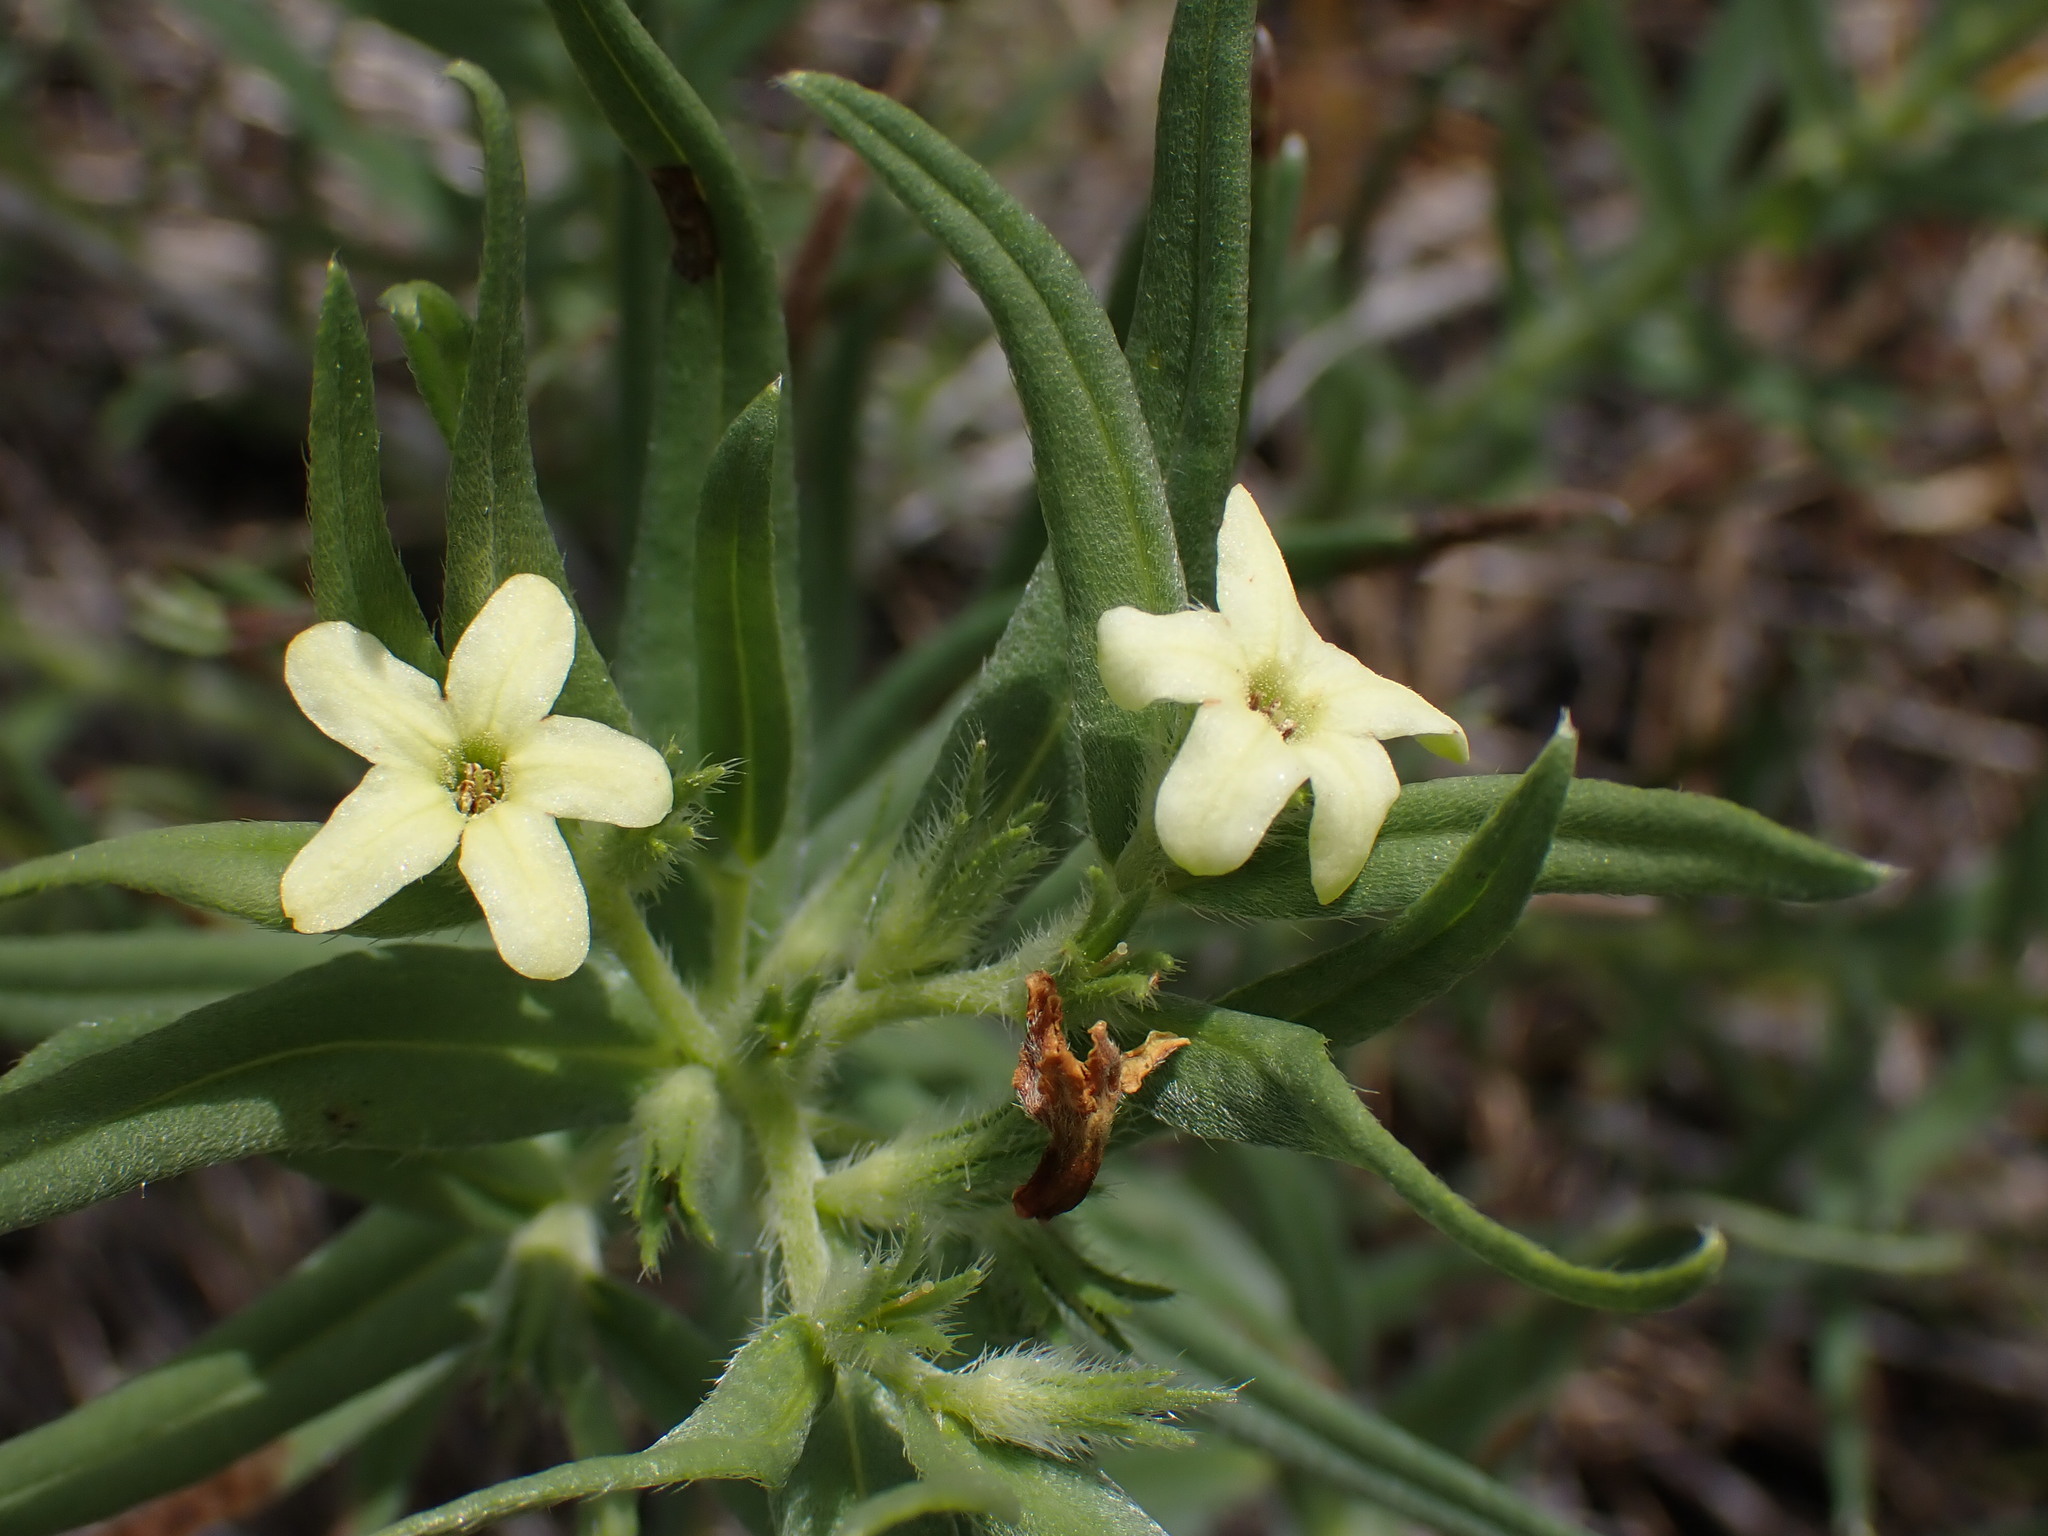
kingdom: Plantae
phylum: Tracheophyta
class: Magnoliopsida
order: Boraginales
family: Boraginaceae
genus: Lithospermum
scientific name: Lithospermum ruderale
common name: Western gromwell
